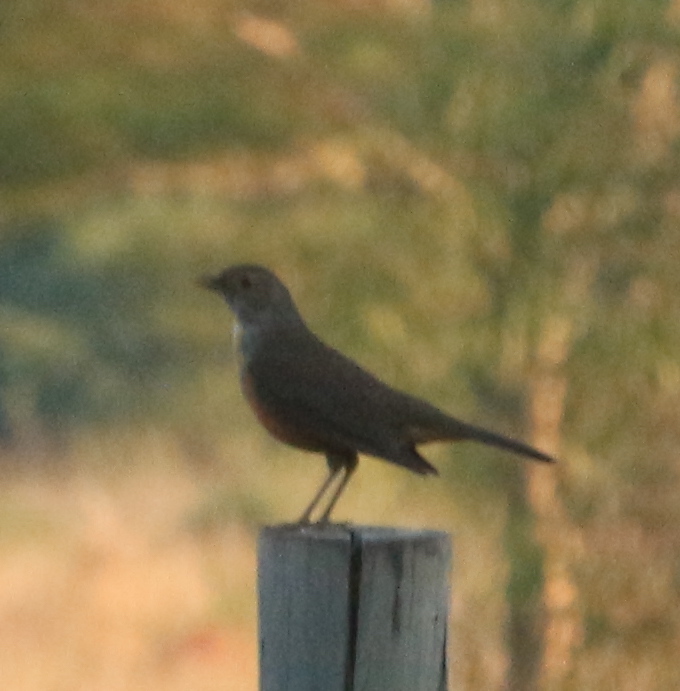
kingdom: Animalia
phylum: Chordata
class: Aves
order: Passeriformes
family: Turdidae
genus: Turdus
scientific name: Turdus rufiventris
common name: Rufous-bellied thrush
